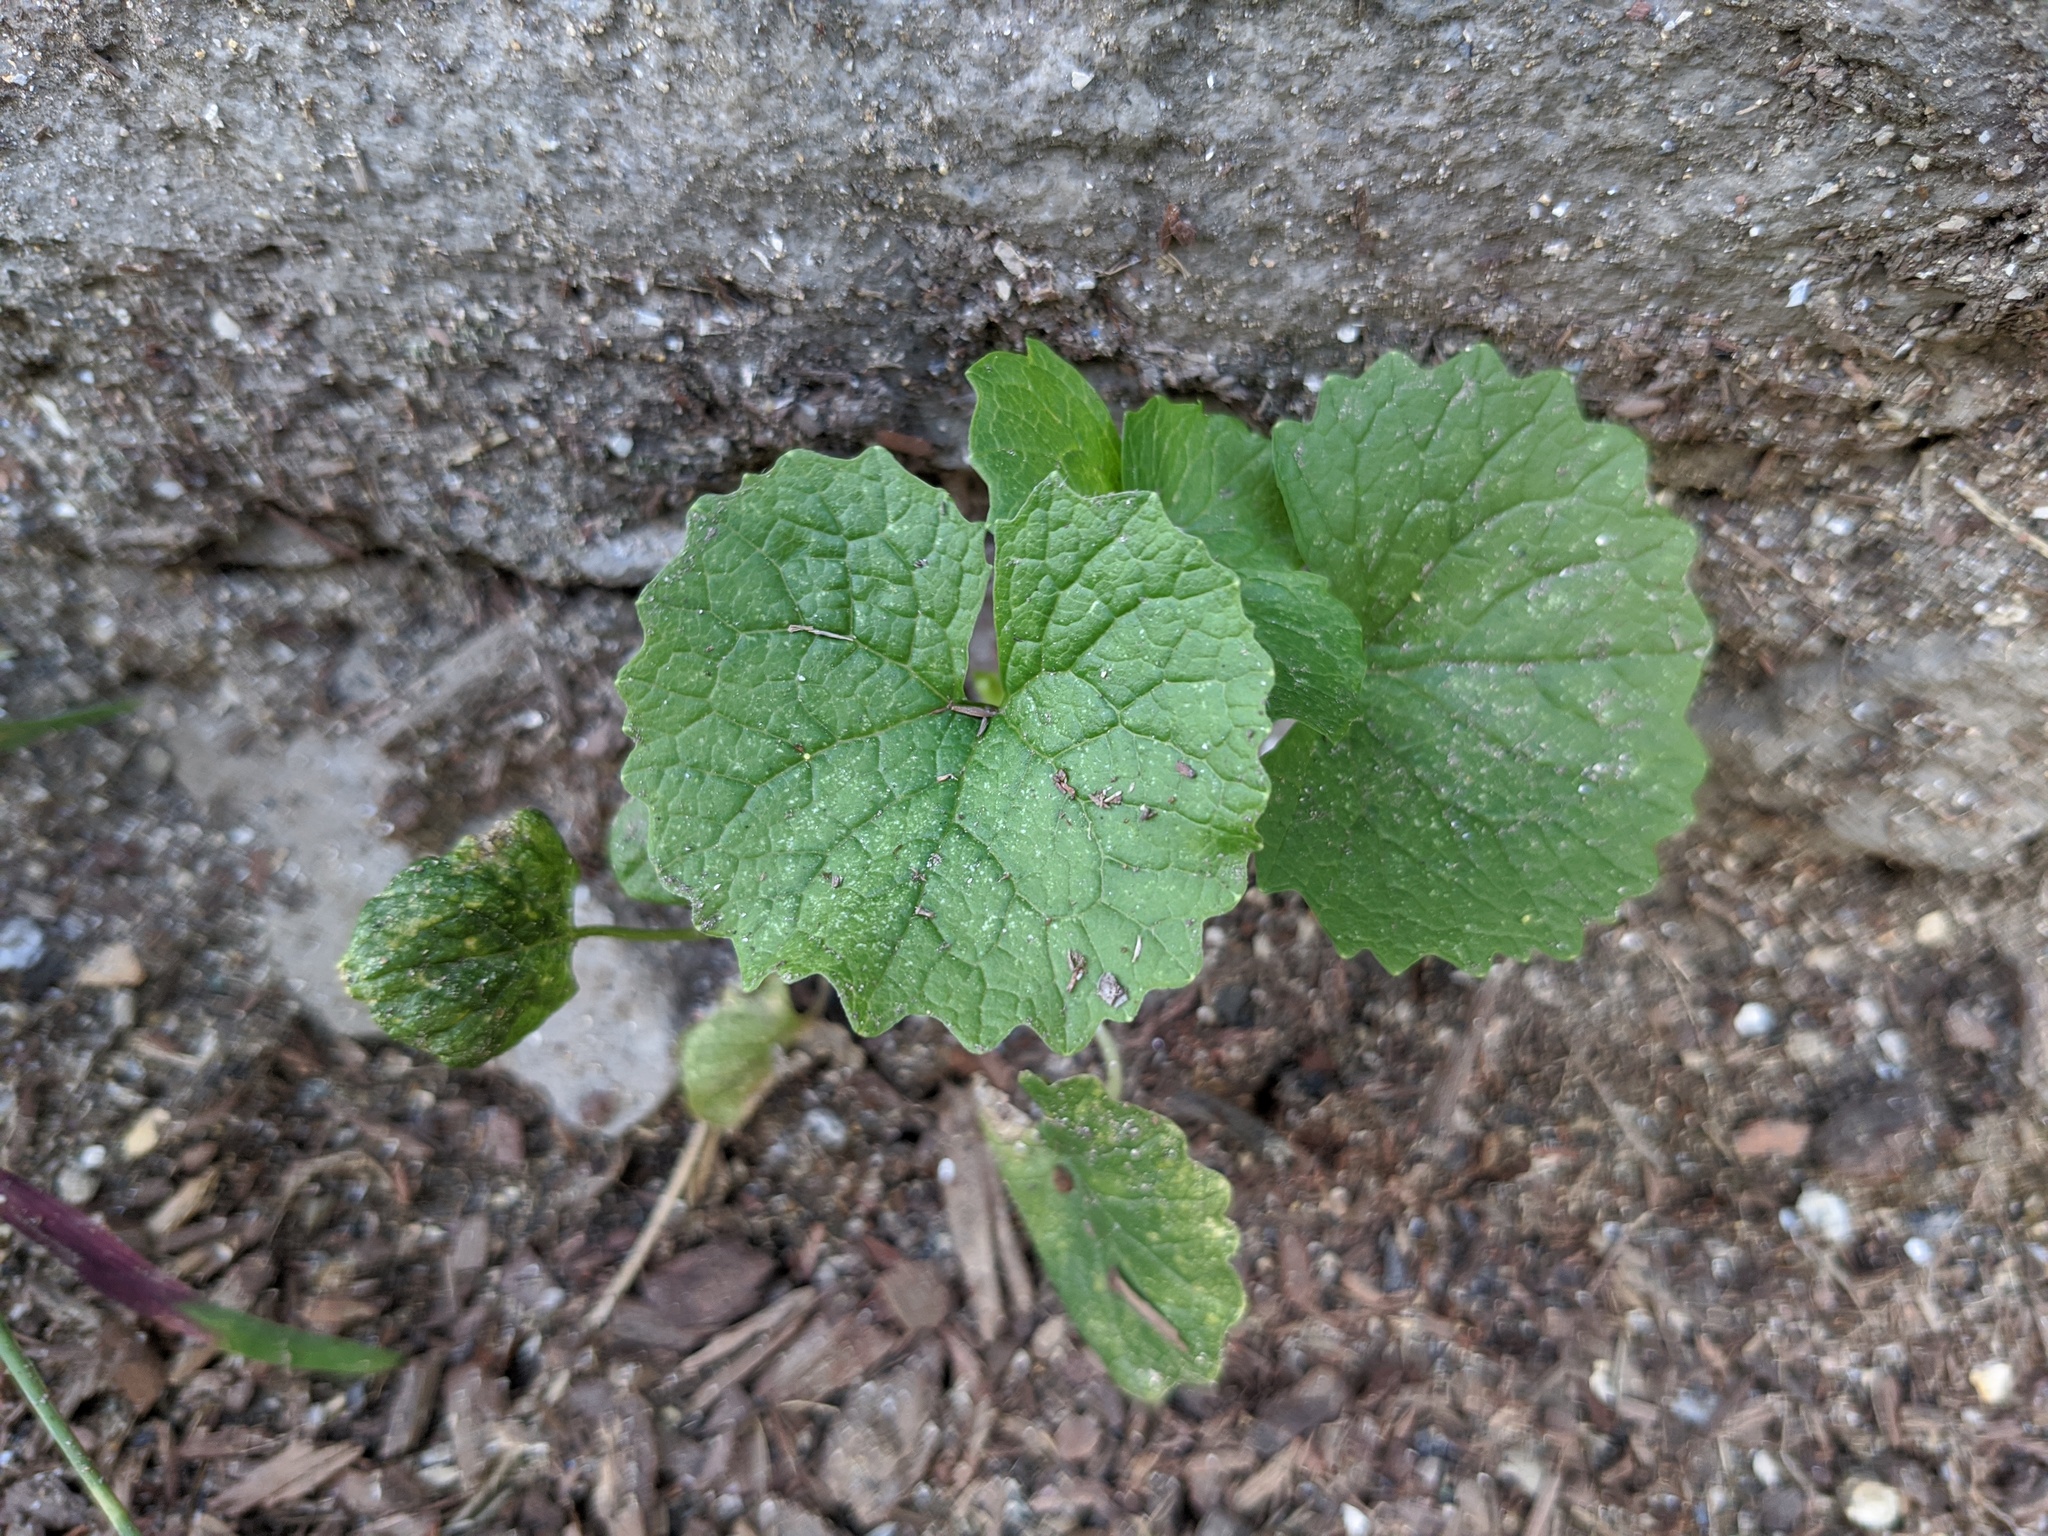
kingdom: Plantae
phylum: Tracheophyta
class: Magnoliopsida
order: Brassicales
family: Brassicaceae
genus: Alliaria
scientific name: Alliaria petiolata
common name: Garlic mustard
